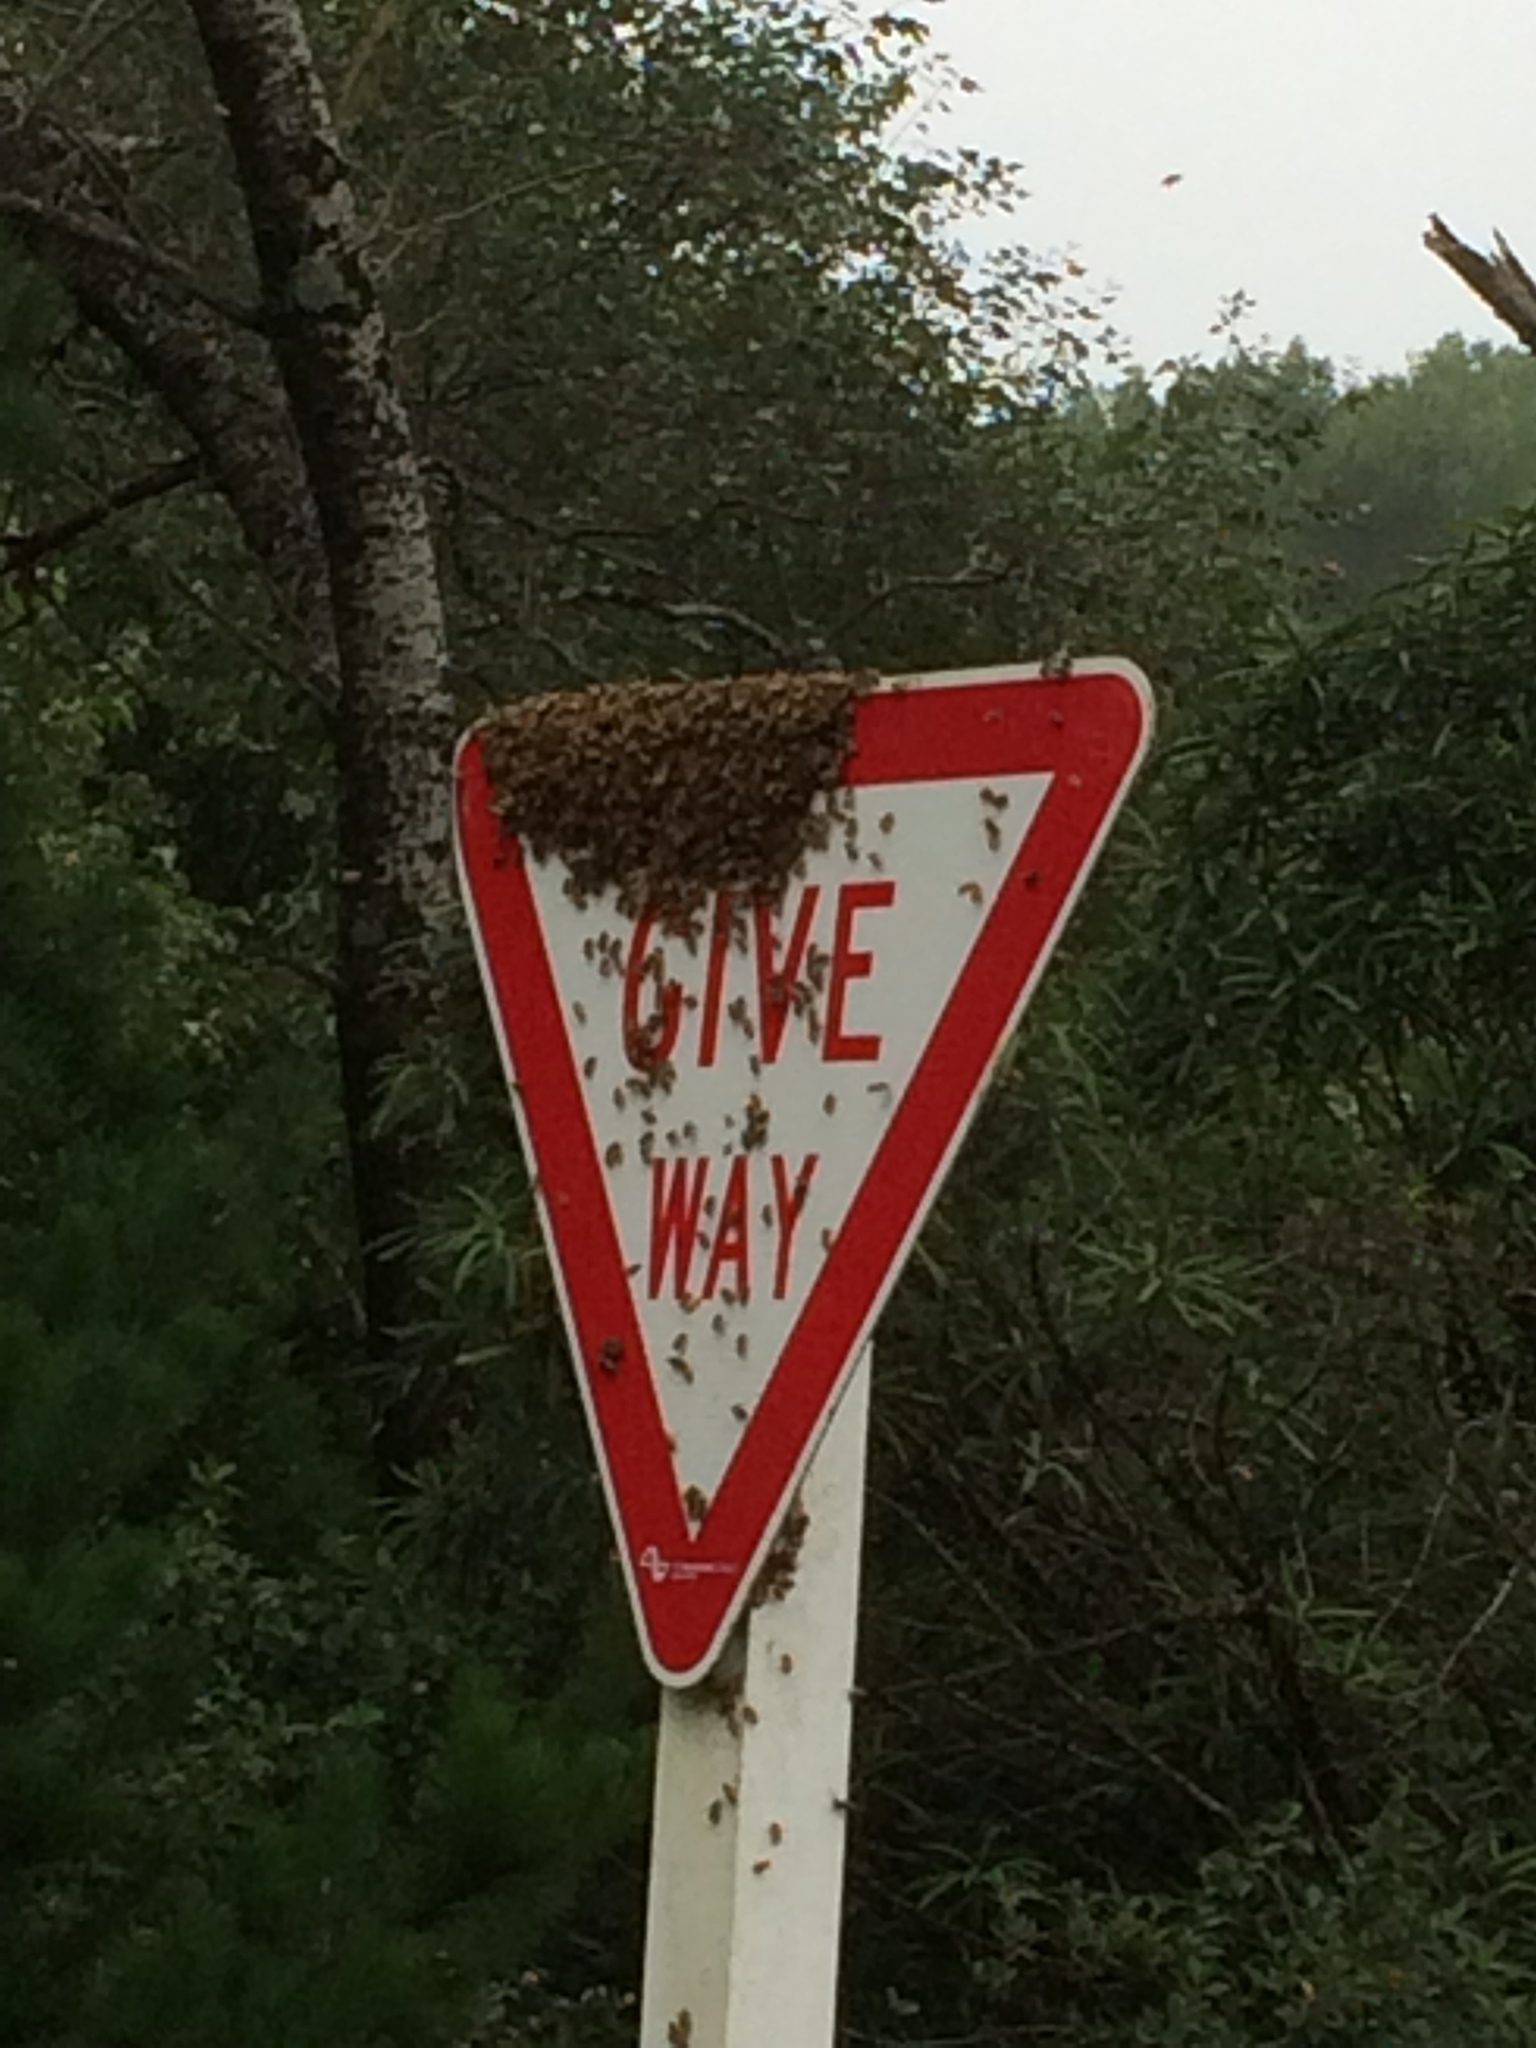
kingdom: Animalia
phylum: Arthropoda
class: Insecta
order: Hymenoptera
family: Apidae
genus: Apis
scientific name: Apis mellifera
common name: Honey bee
